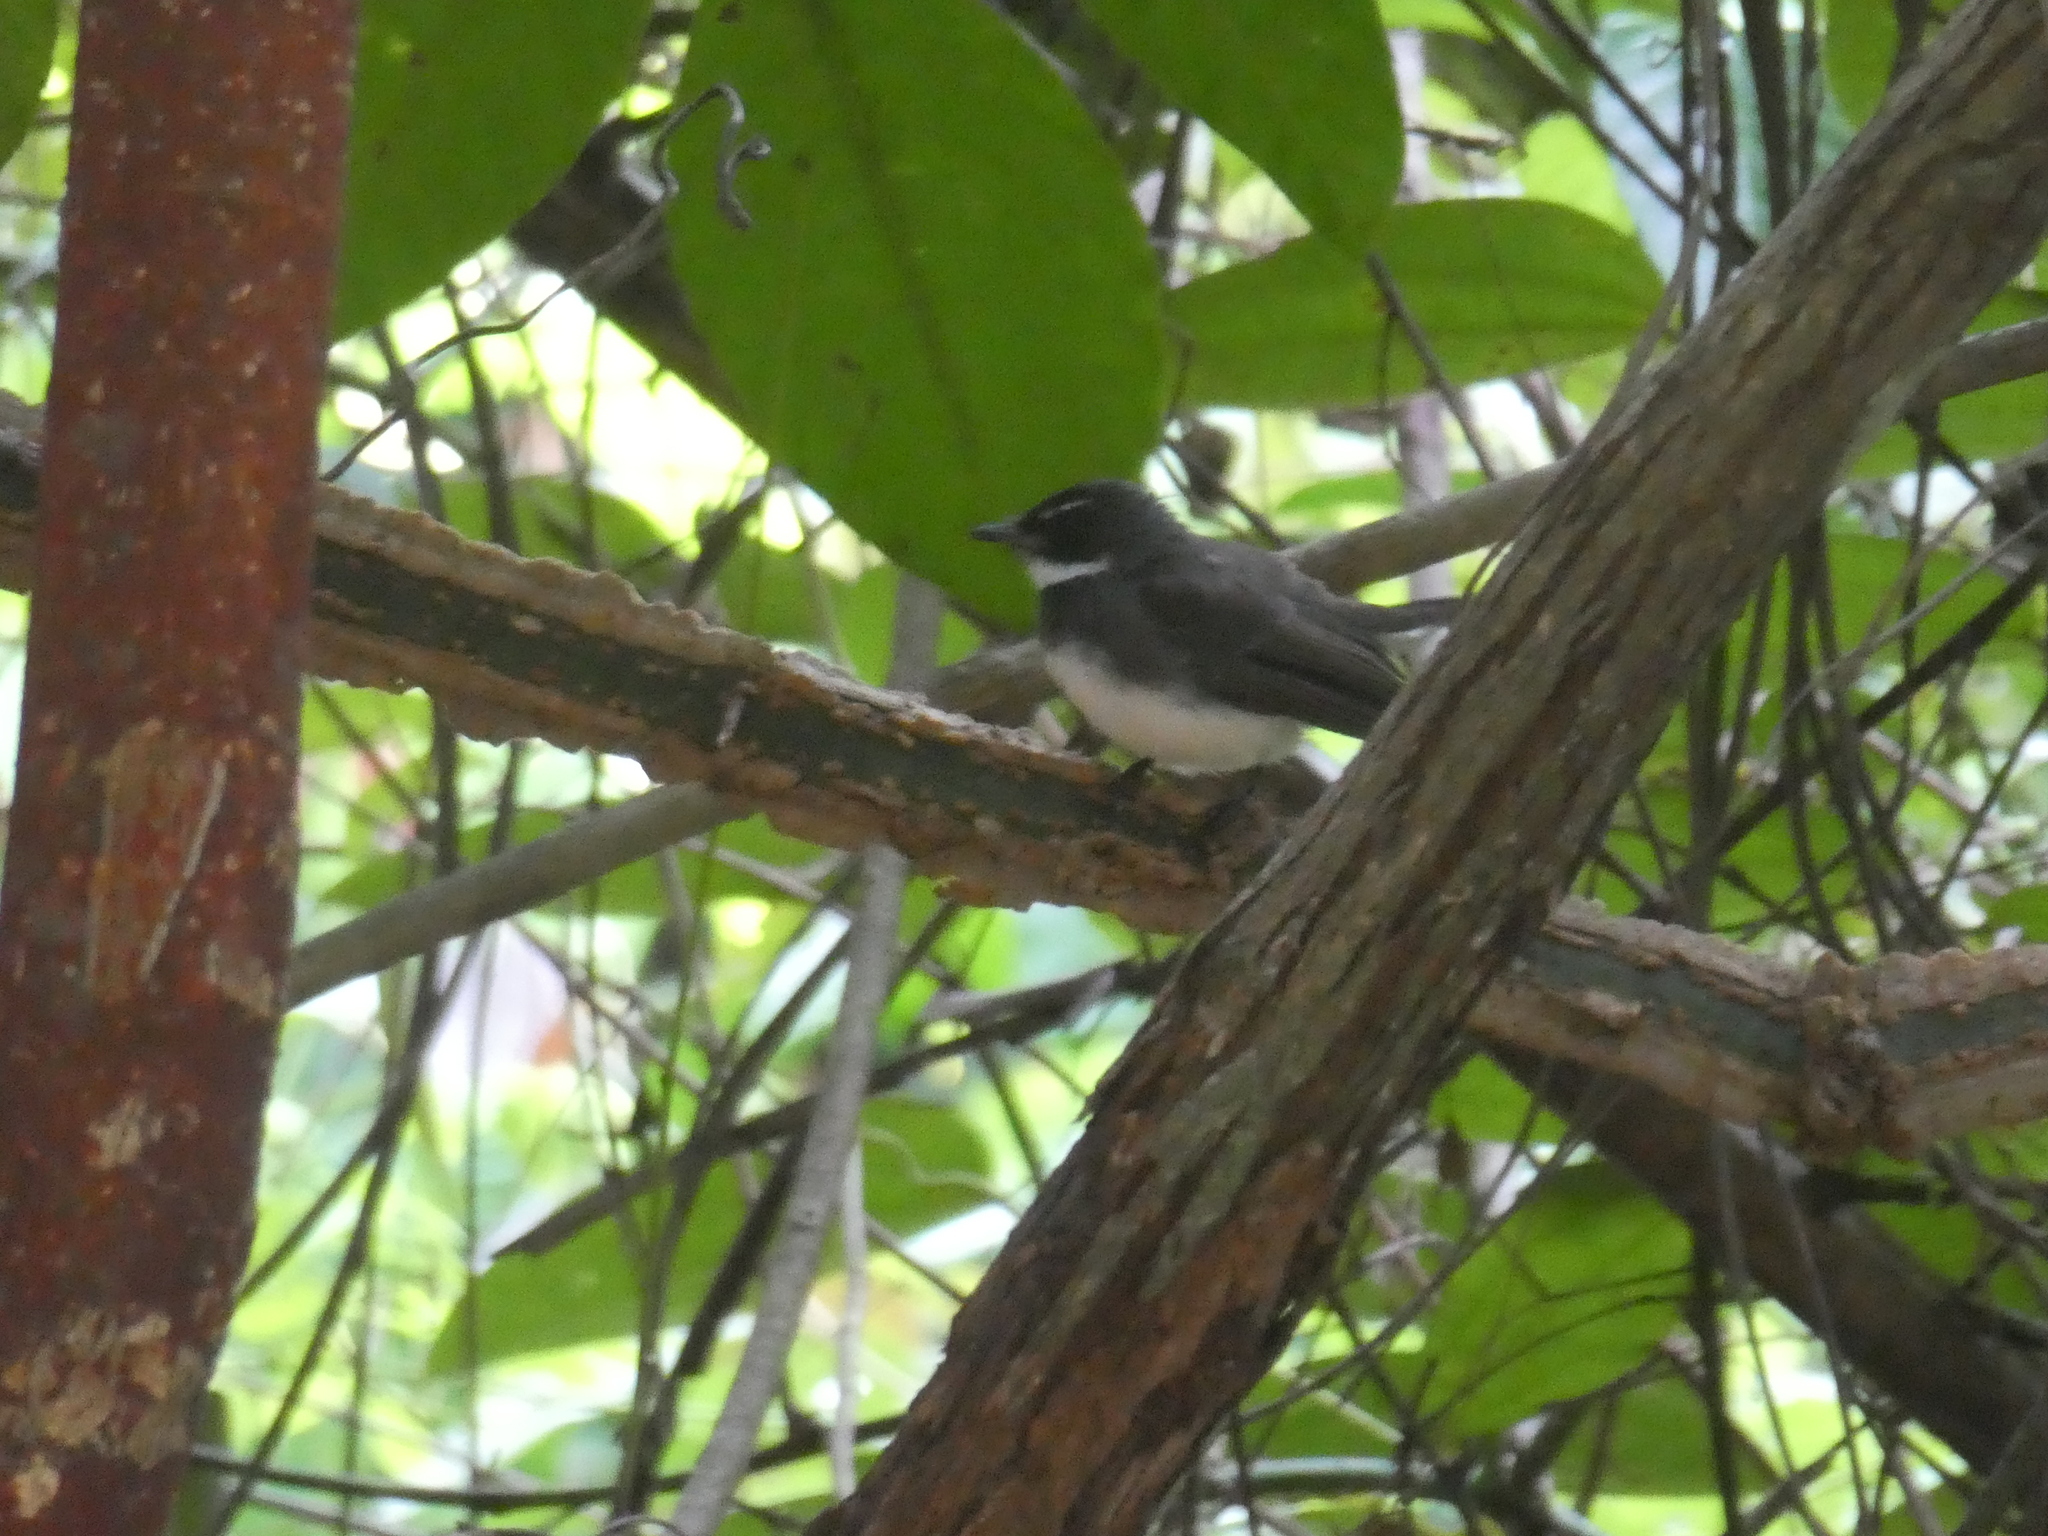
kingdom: Animalia
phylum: Chordata
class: Aves
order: Passeriformes
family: Rhipiduridae
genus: Rhipidura
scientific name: Rhipidura javanica
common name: Pied fantail
